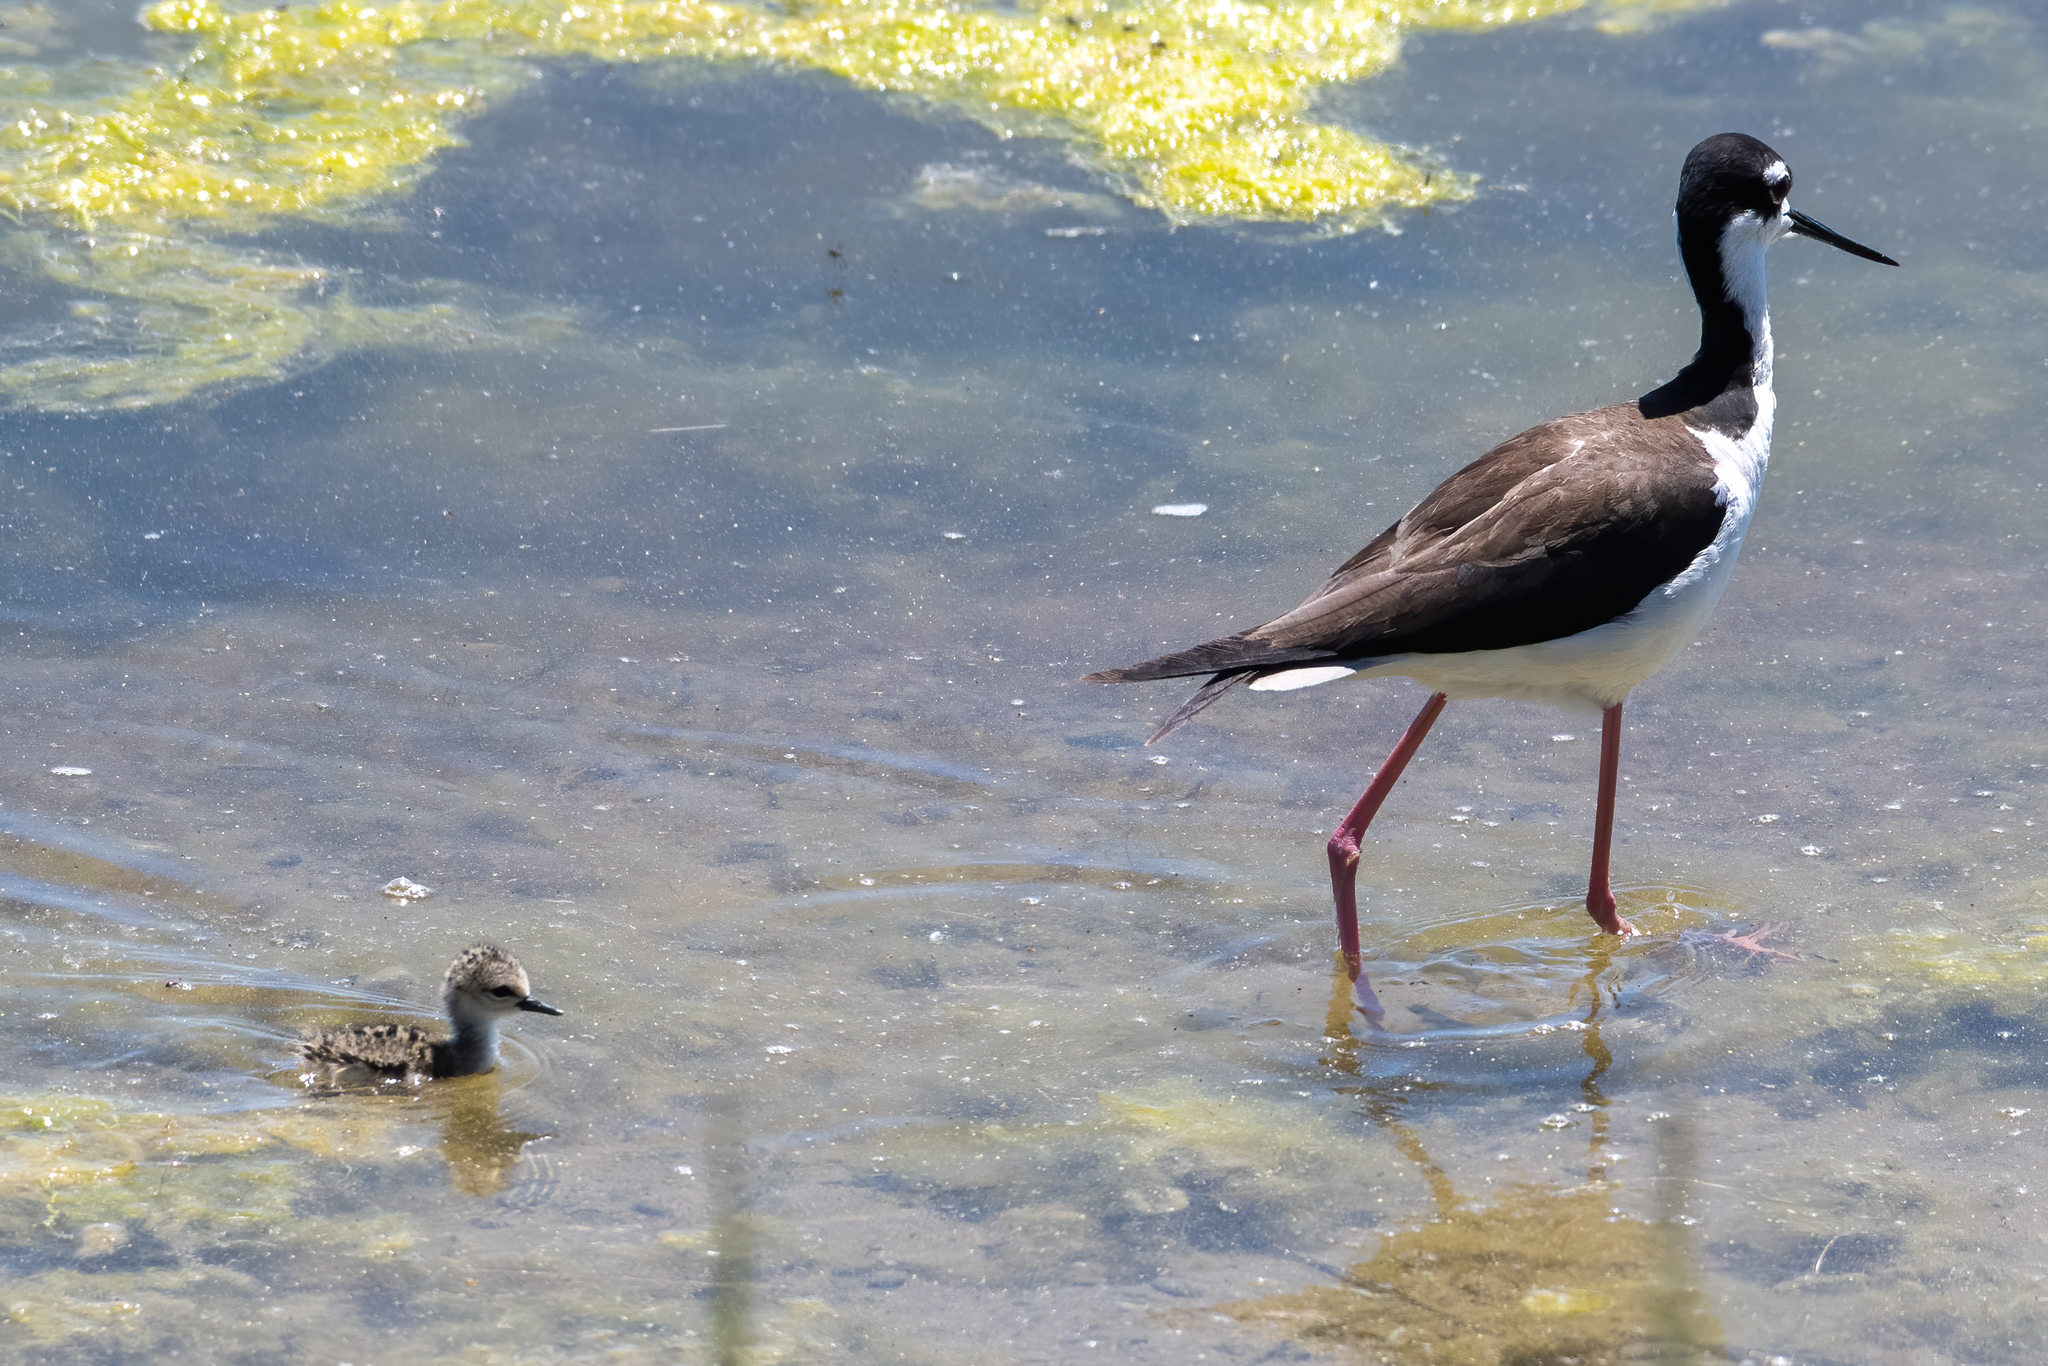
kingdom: Animalia
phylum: Chordata
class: Aves
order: Charadriiformes
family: Recurvirostridae
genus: Himantopus
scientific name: Himantopus mexicanus
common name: Black-necked stilt
